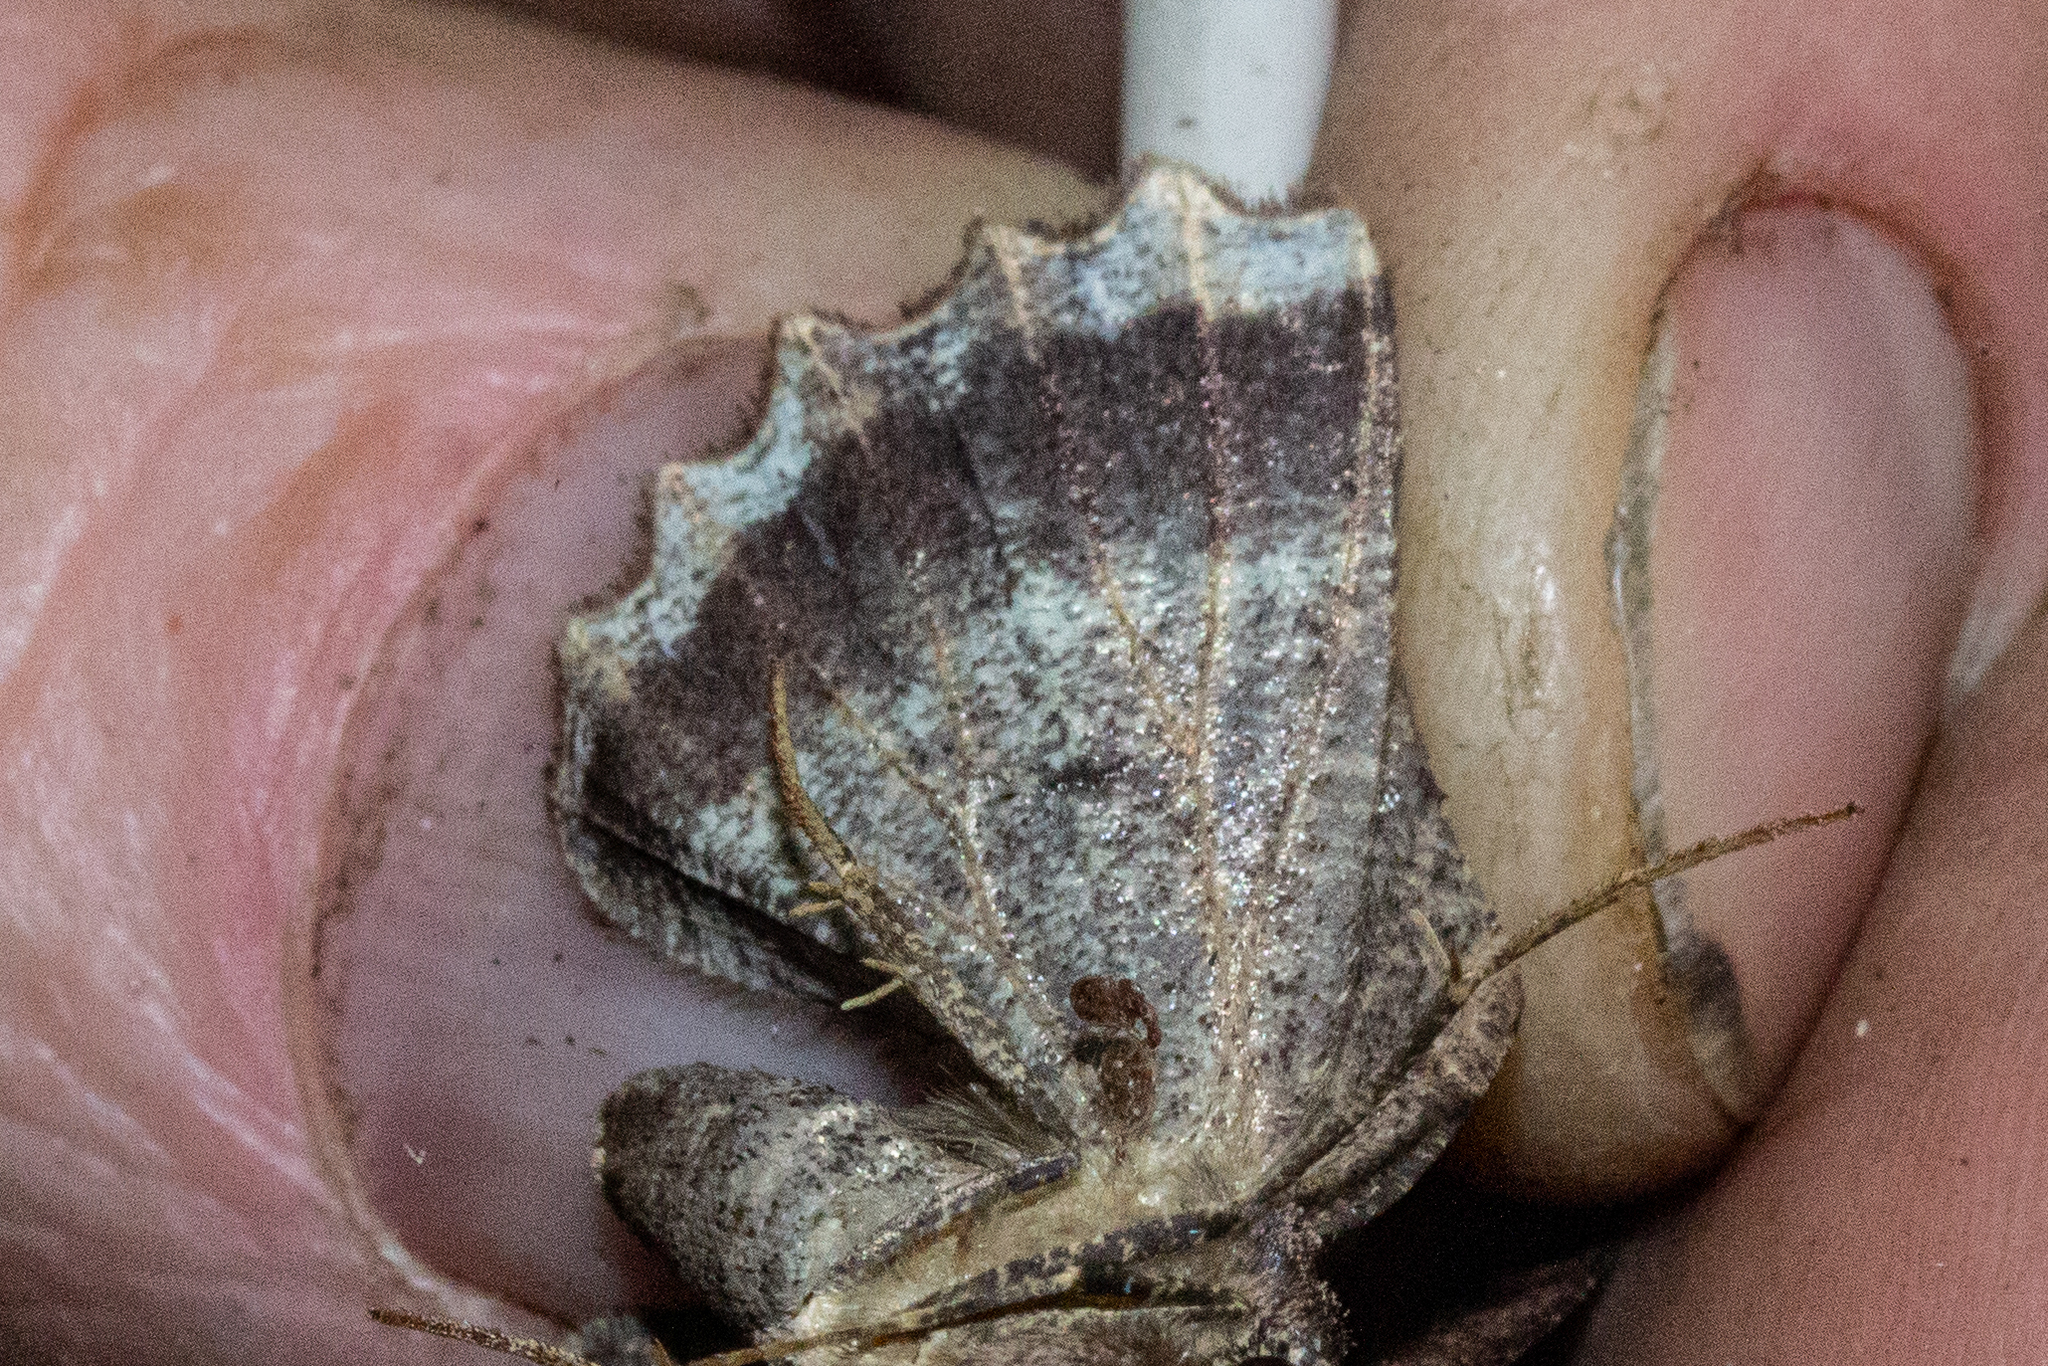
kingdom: Animalia
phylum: Arthropoda
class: Insecta
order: Lepidoptera
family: Geometridae
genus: Gellonia
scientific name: Gellonia dejectaria
